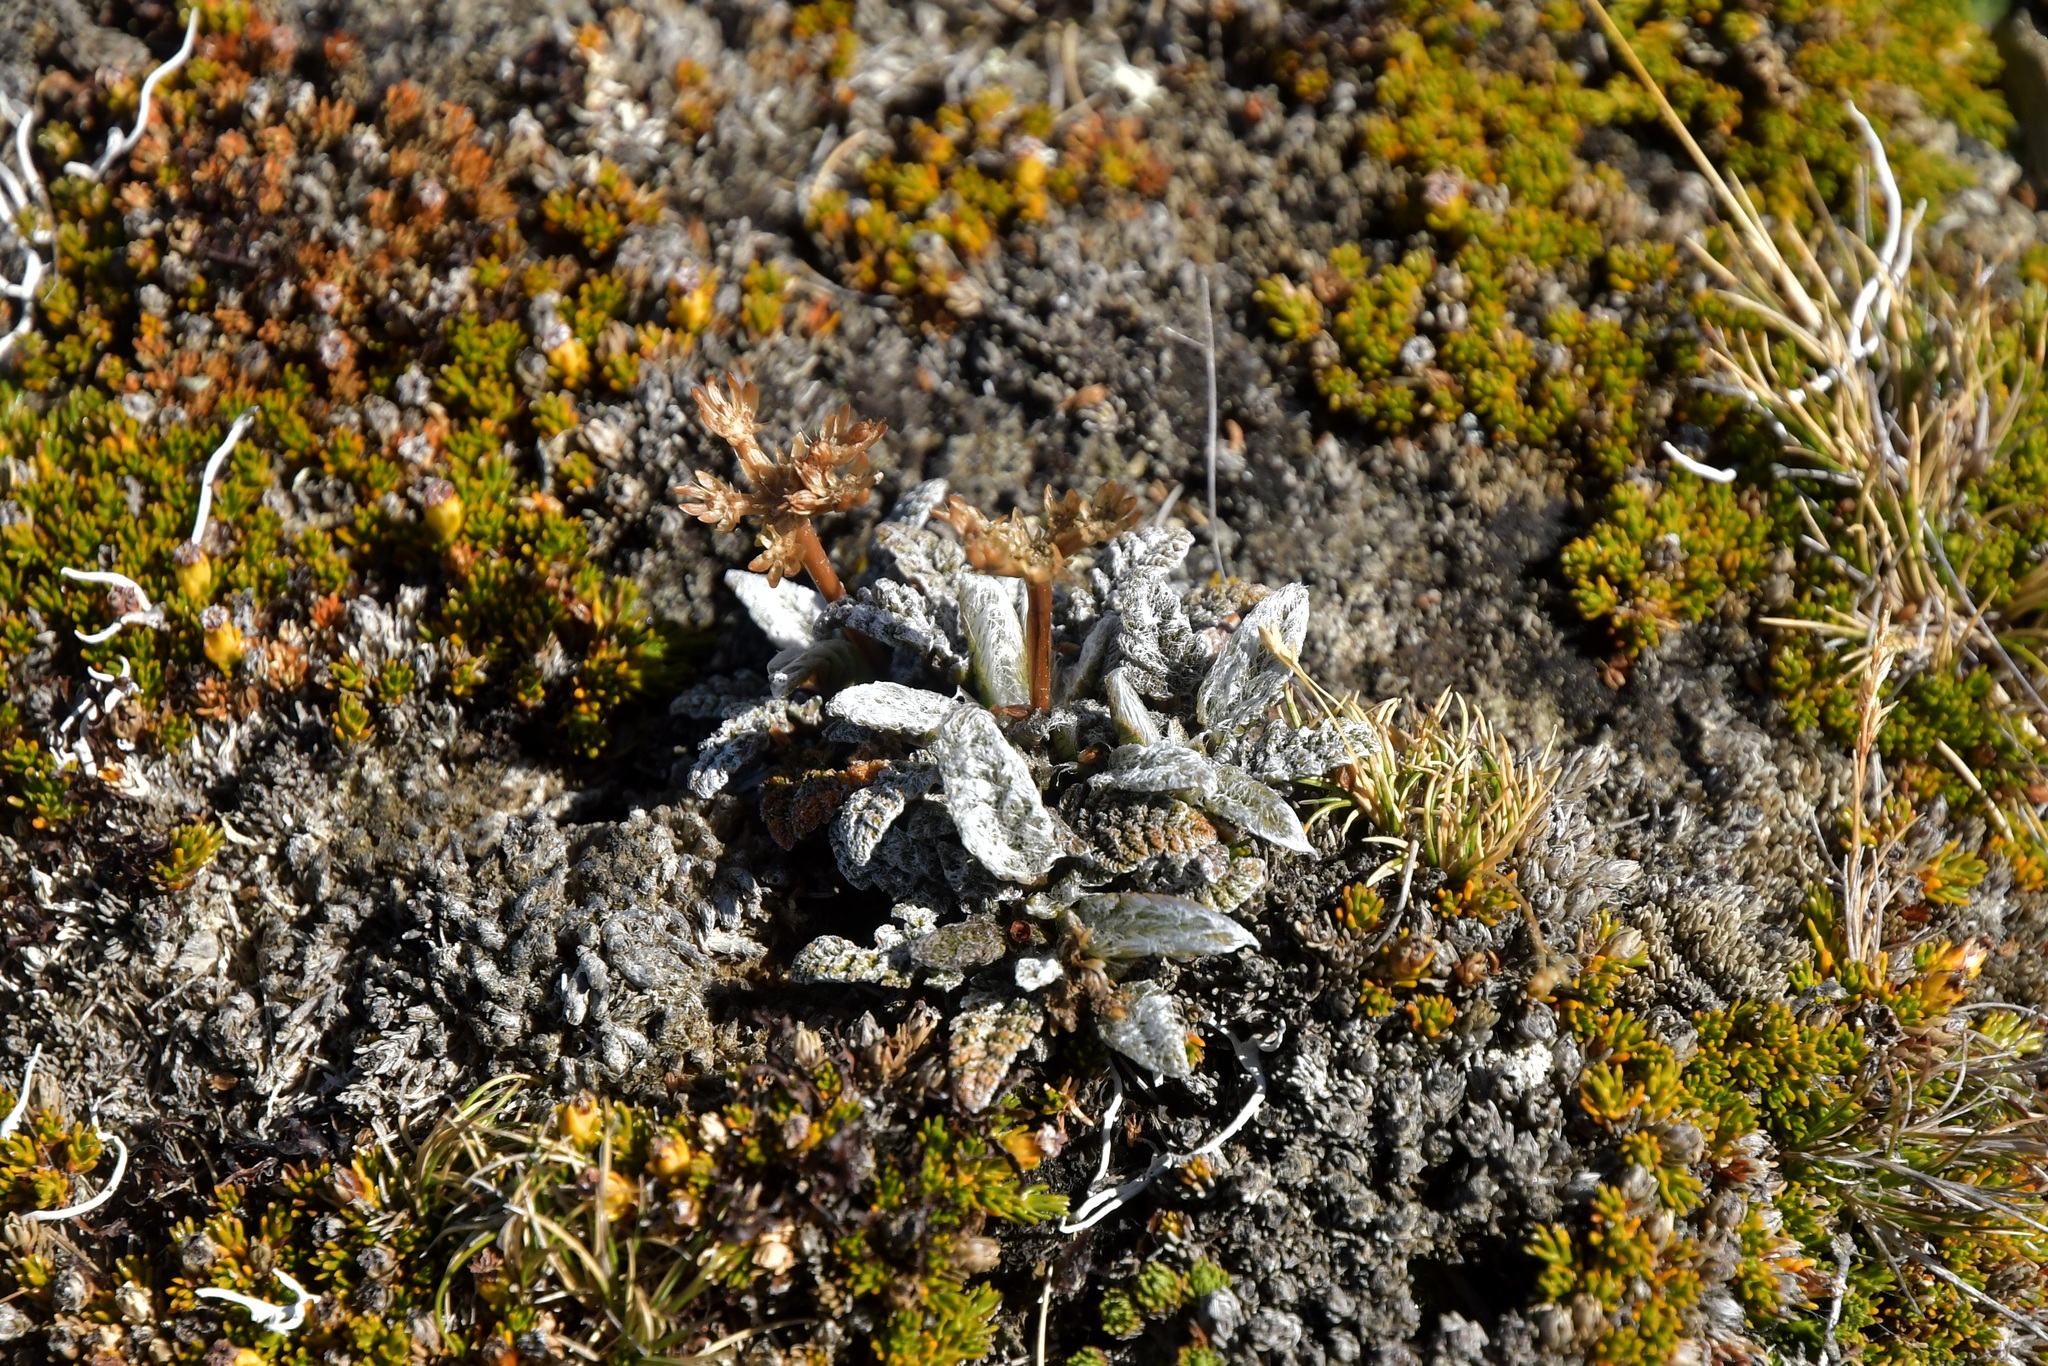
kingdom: Plantae
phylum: Tracheophyta
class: Magnoliopsida
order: Apiales
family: Apiaceae
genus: Anisotome
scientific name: Anisotome lanuginosa
